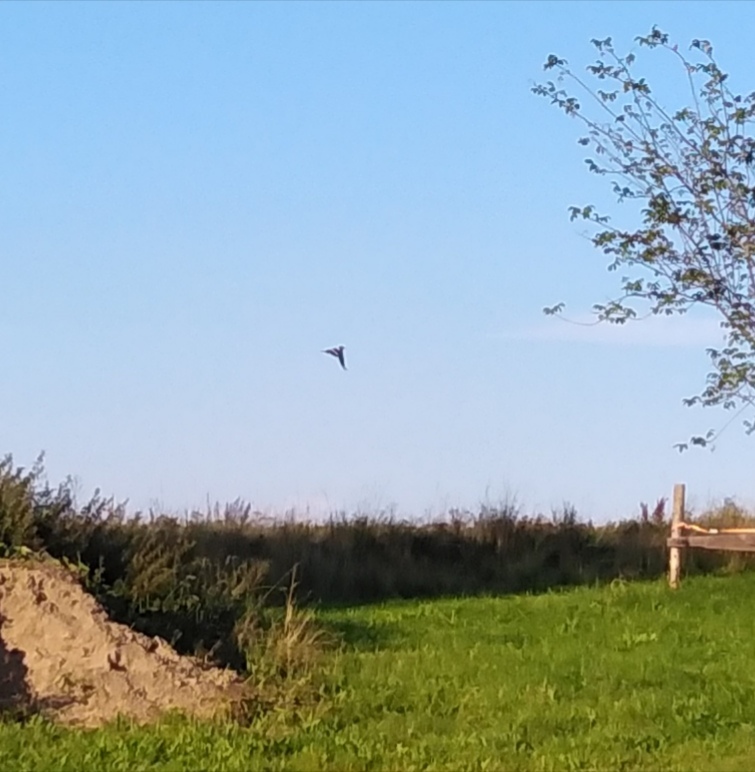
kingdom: Animalia
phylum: Chordata
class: Aves
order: Bucerotiformes
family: Upupidae
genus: Upupa
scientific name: Upupa epops
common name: Eurasian hoopoe
